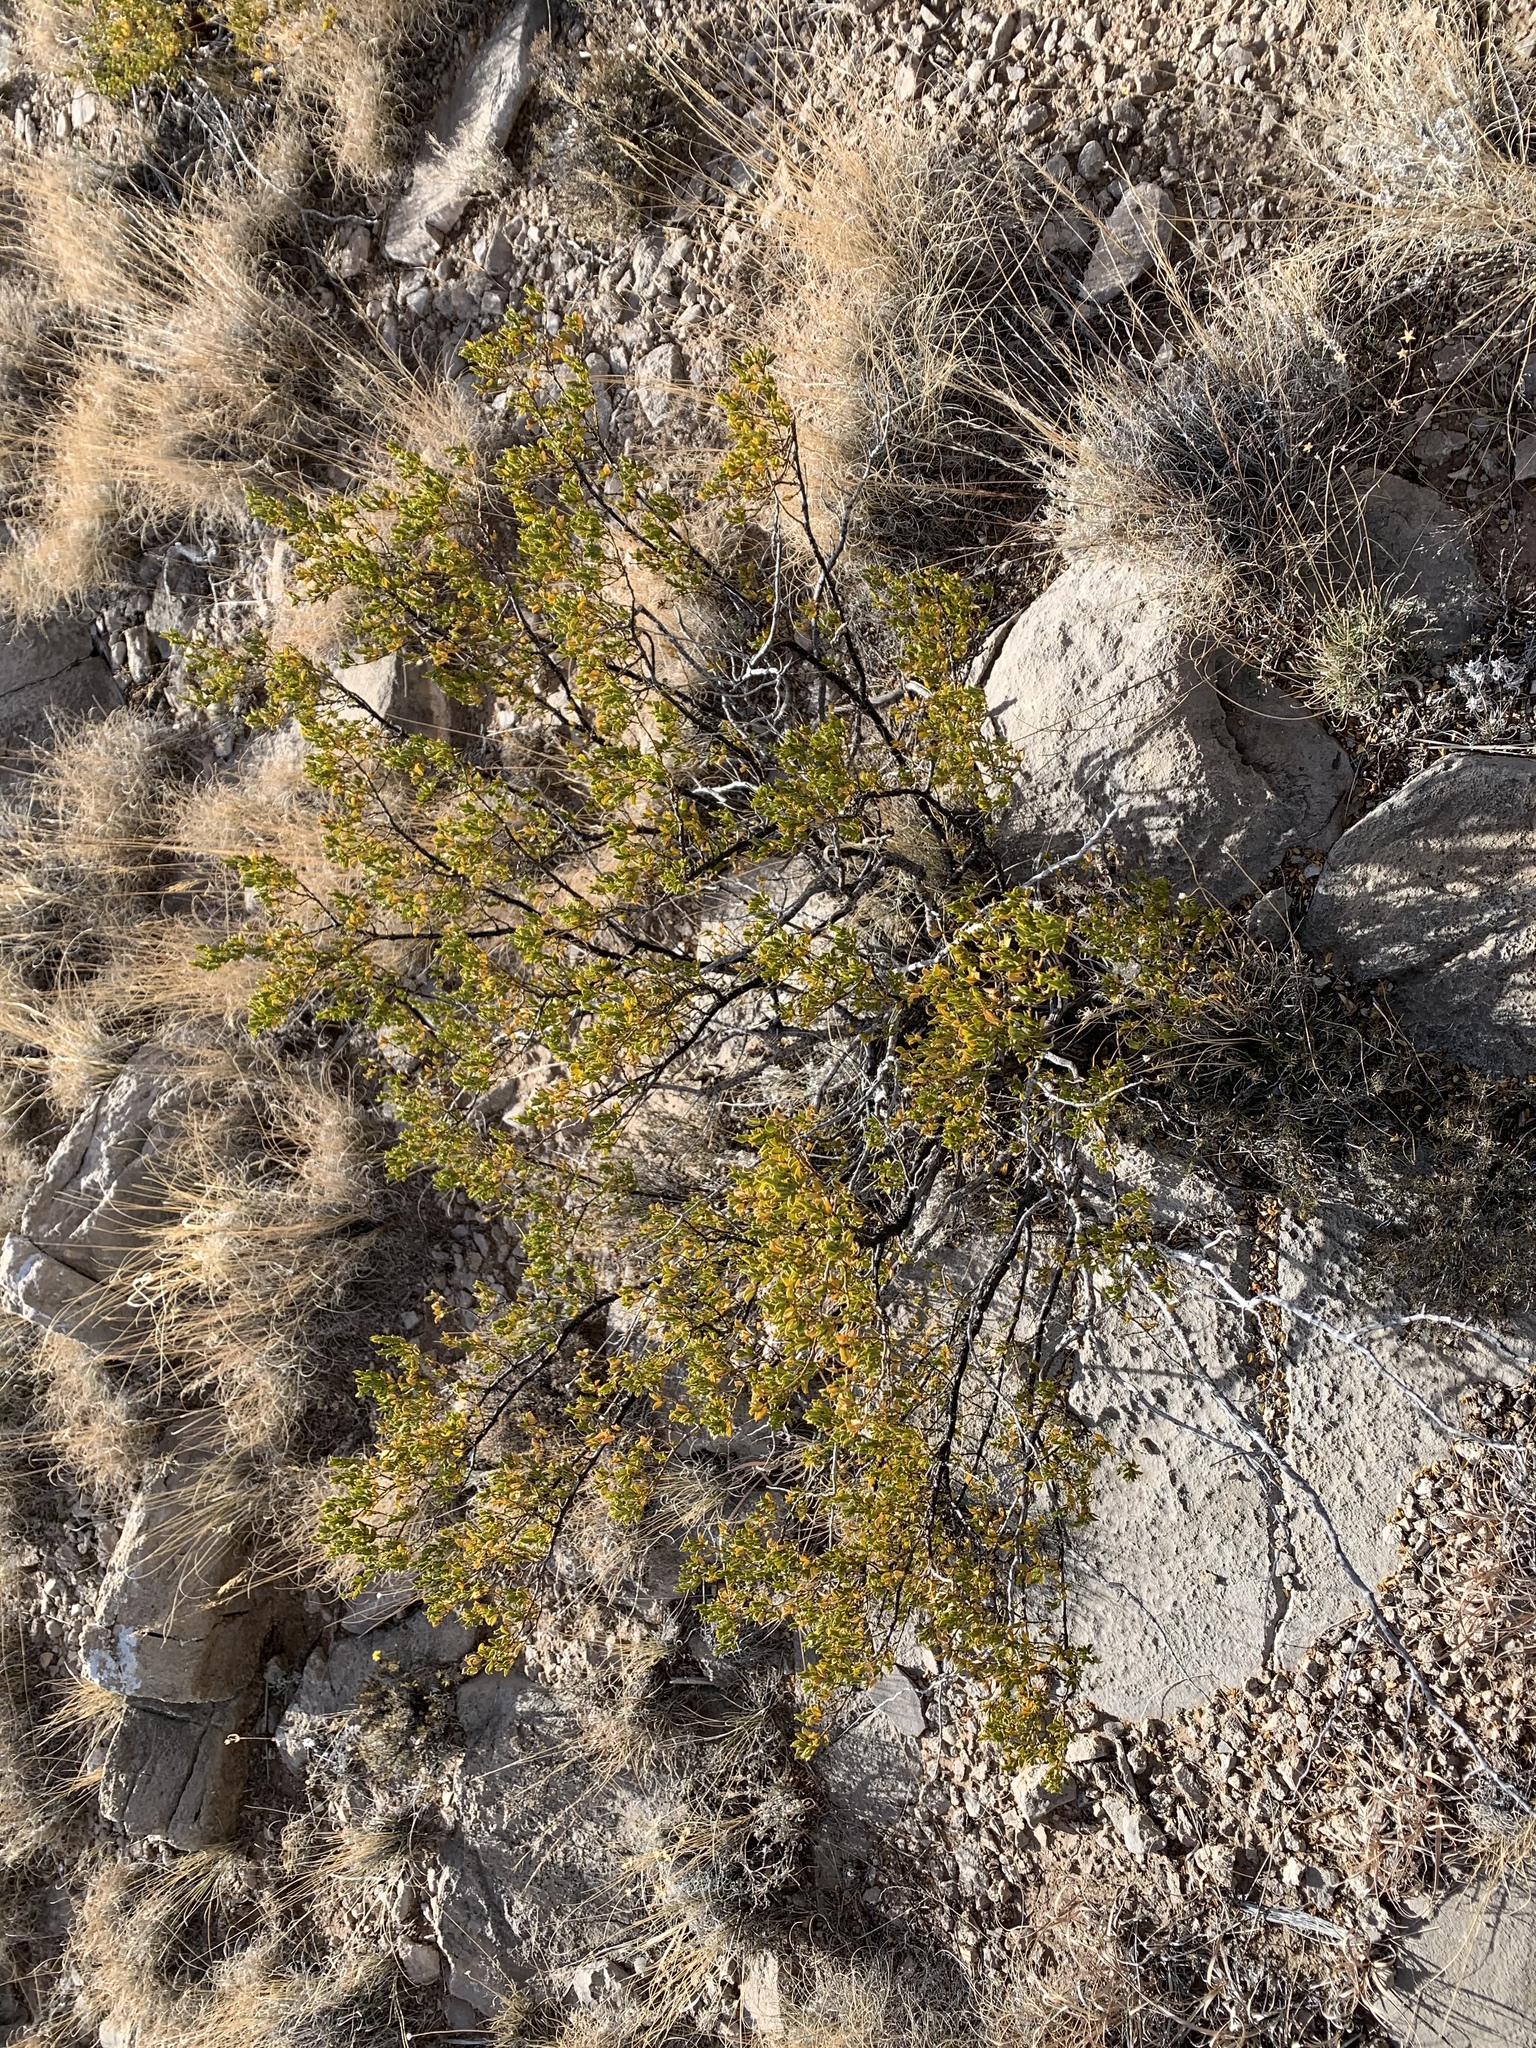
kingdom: Plantae
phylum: Tracheophyta
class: Magnoliopsida
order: Zygophyllales
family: Zygophyllaceae
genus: Larrea
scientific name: Larrea tridentata
